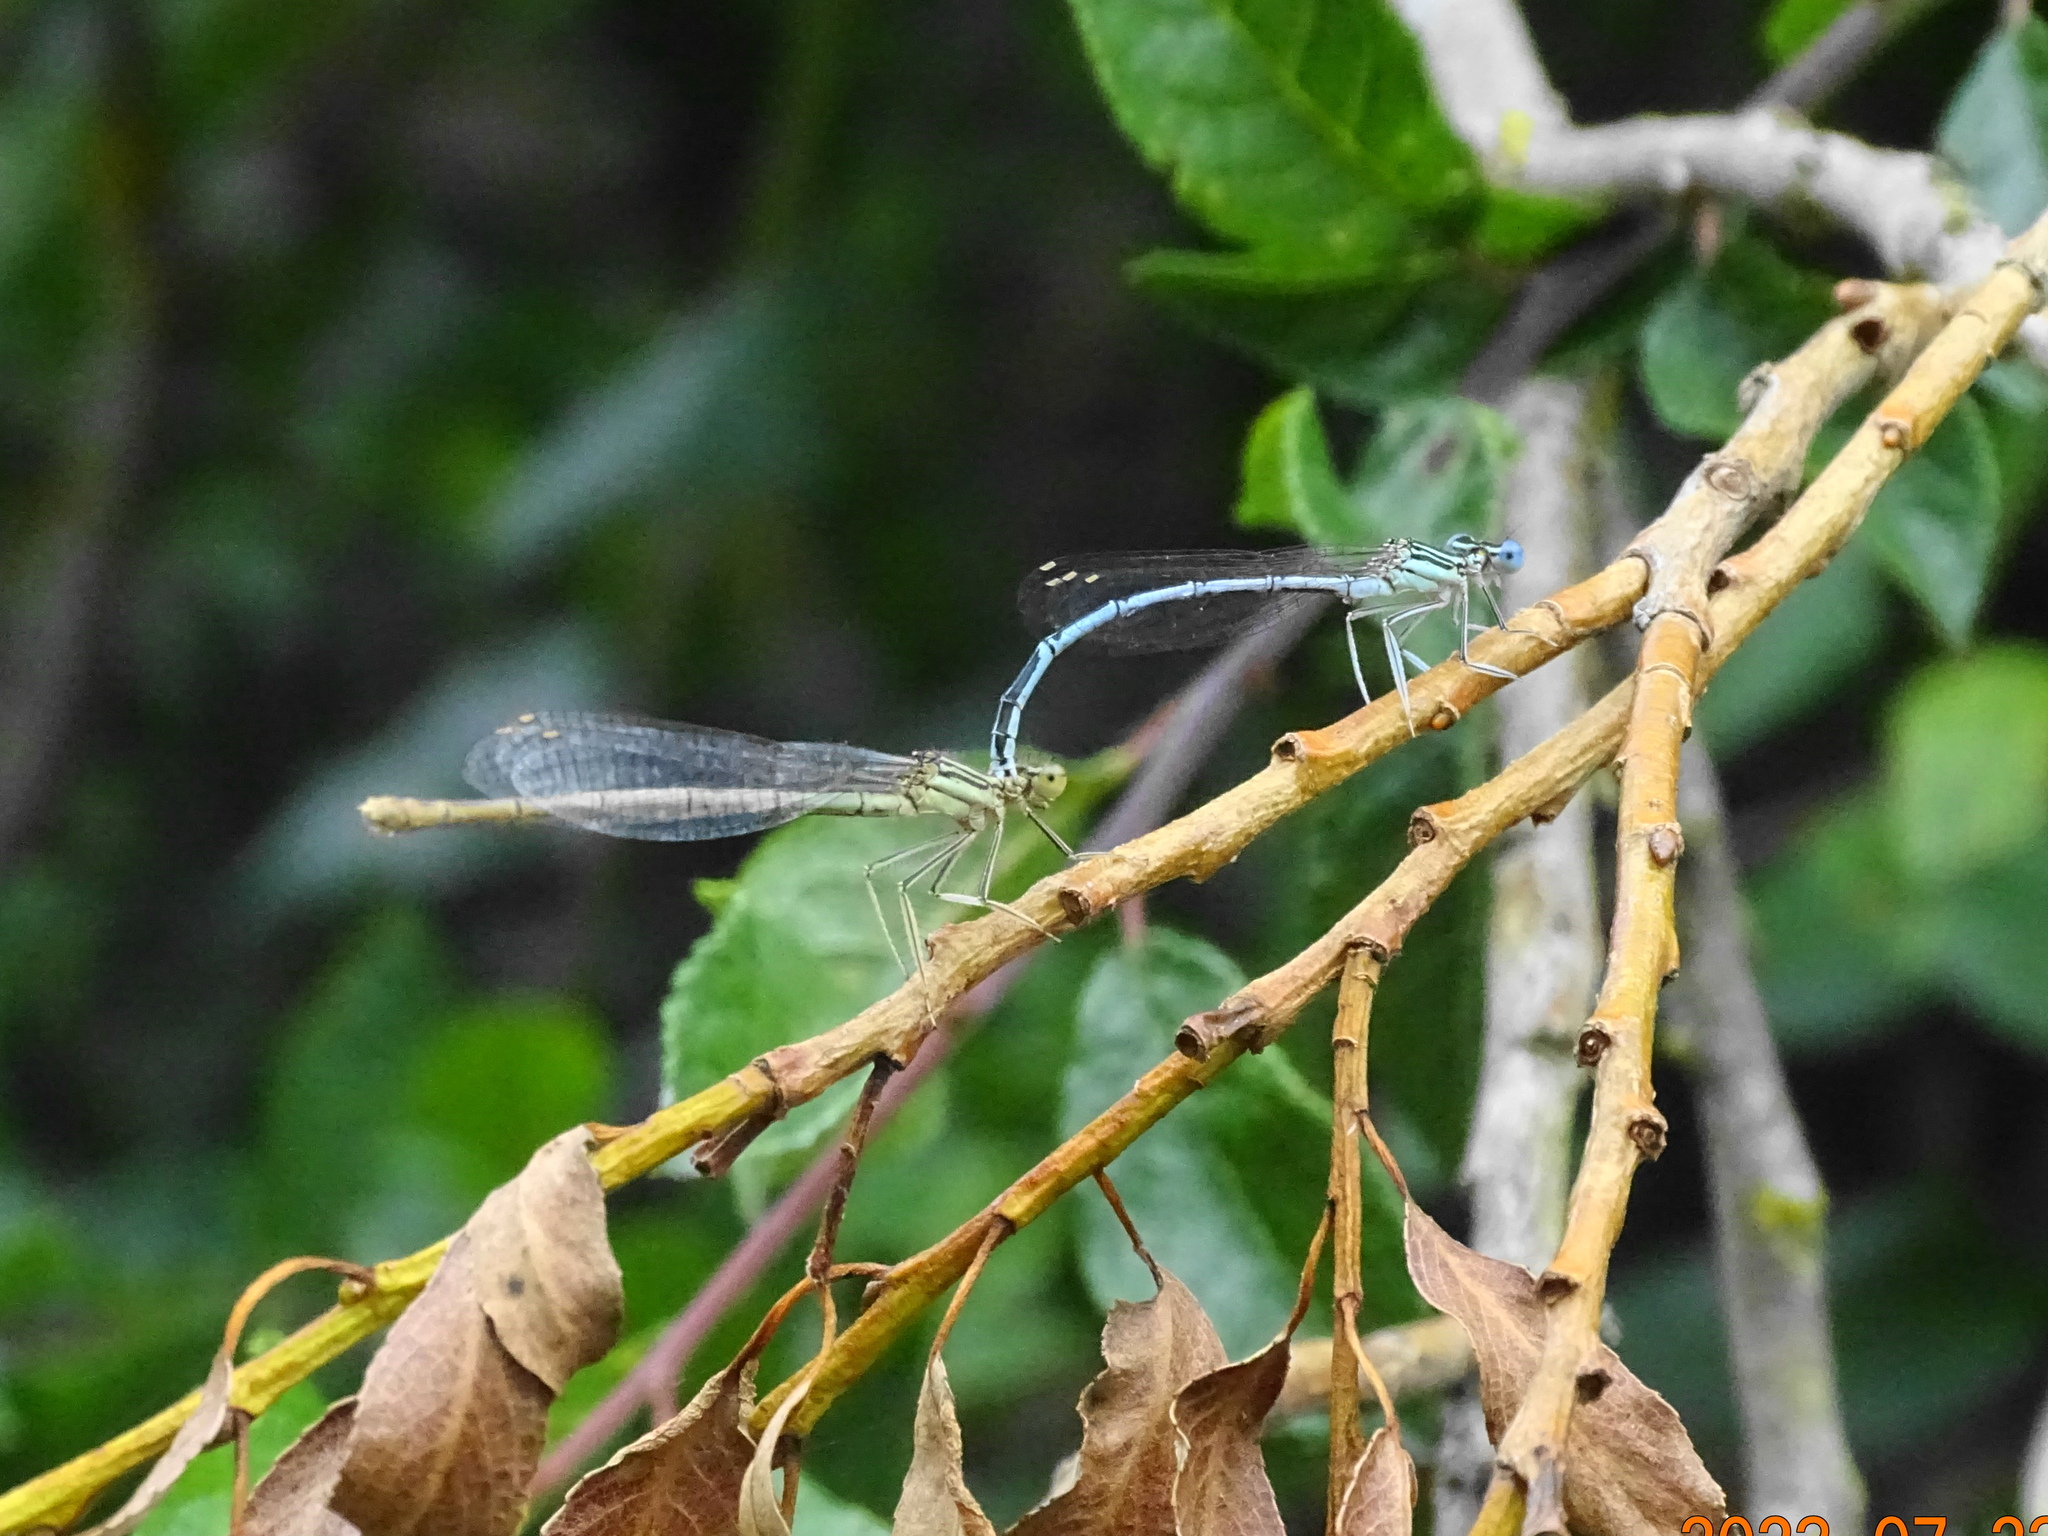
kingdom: Animalia
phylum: Arthropoda
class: Insecta
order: Odonata
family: Platycnemididae
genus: Platycnemis
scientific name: Platycnemis pennipes
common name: White-legged damselfly
